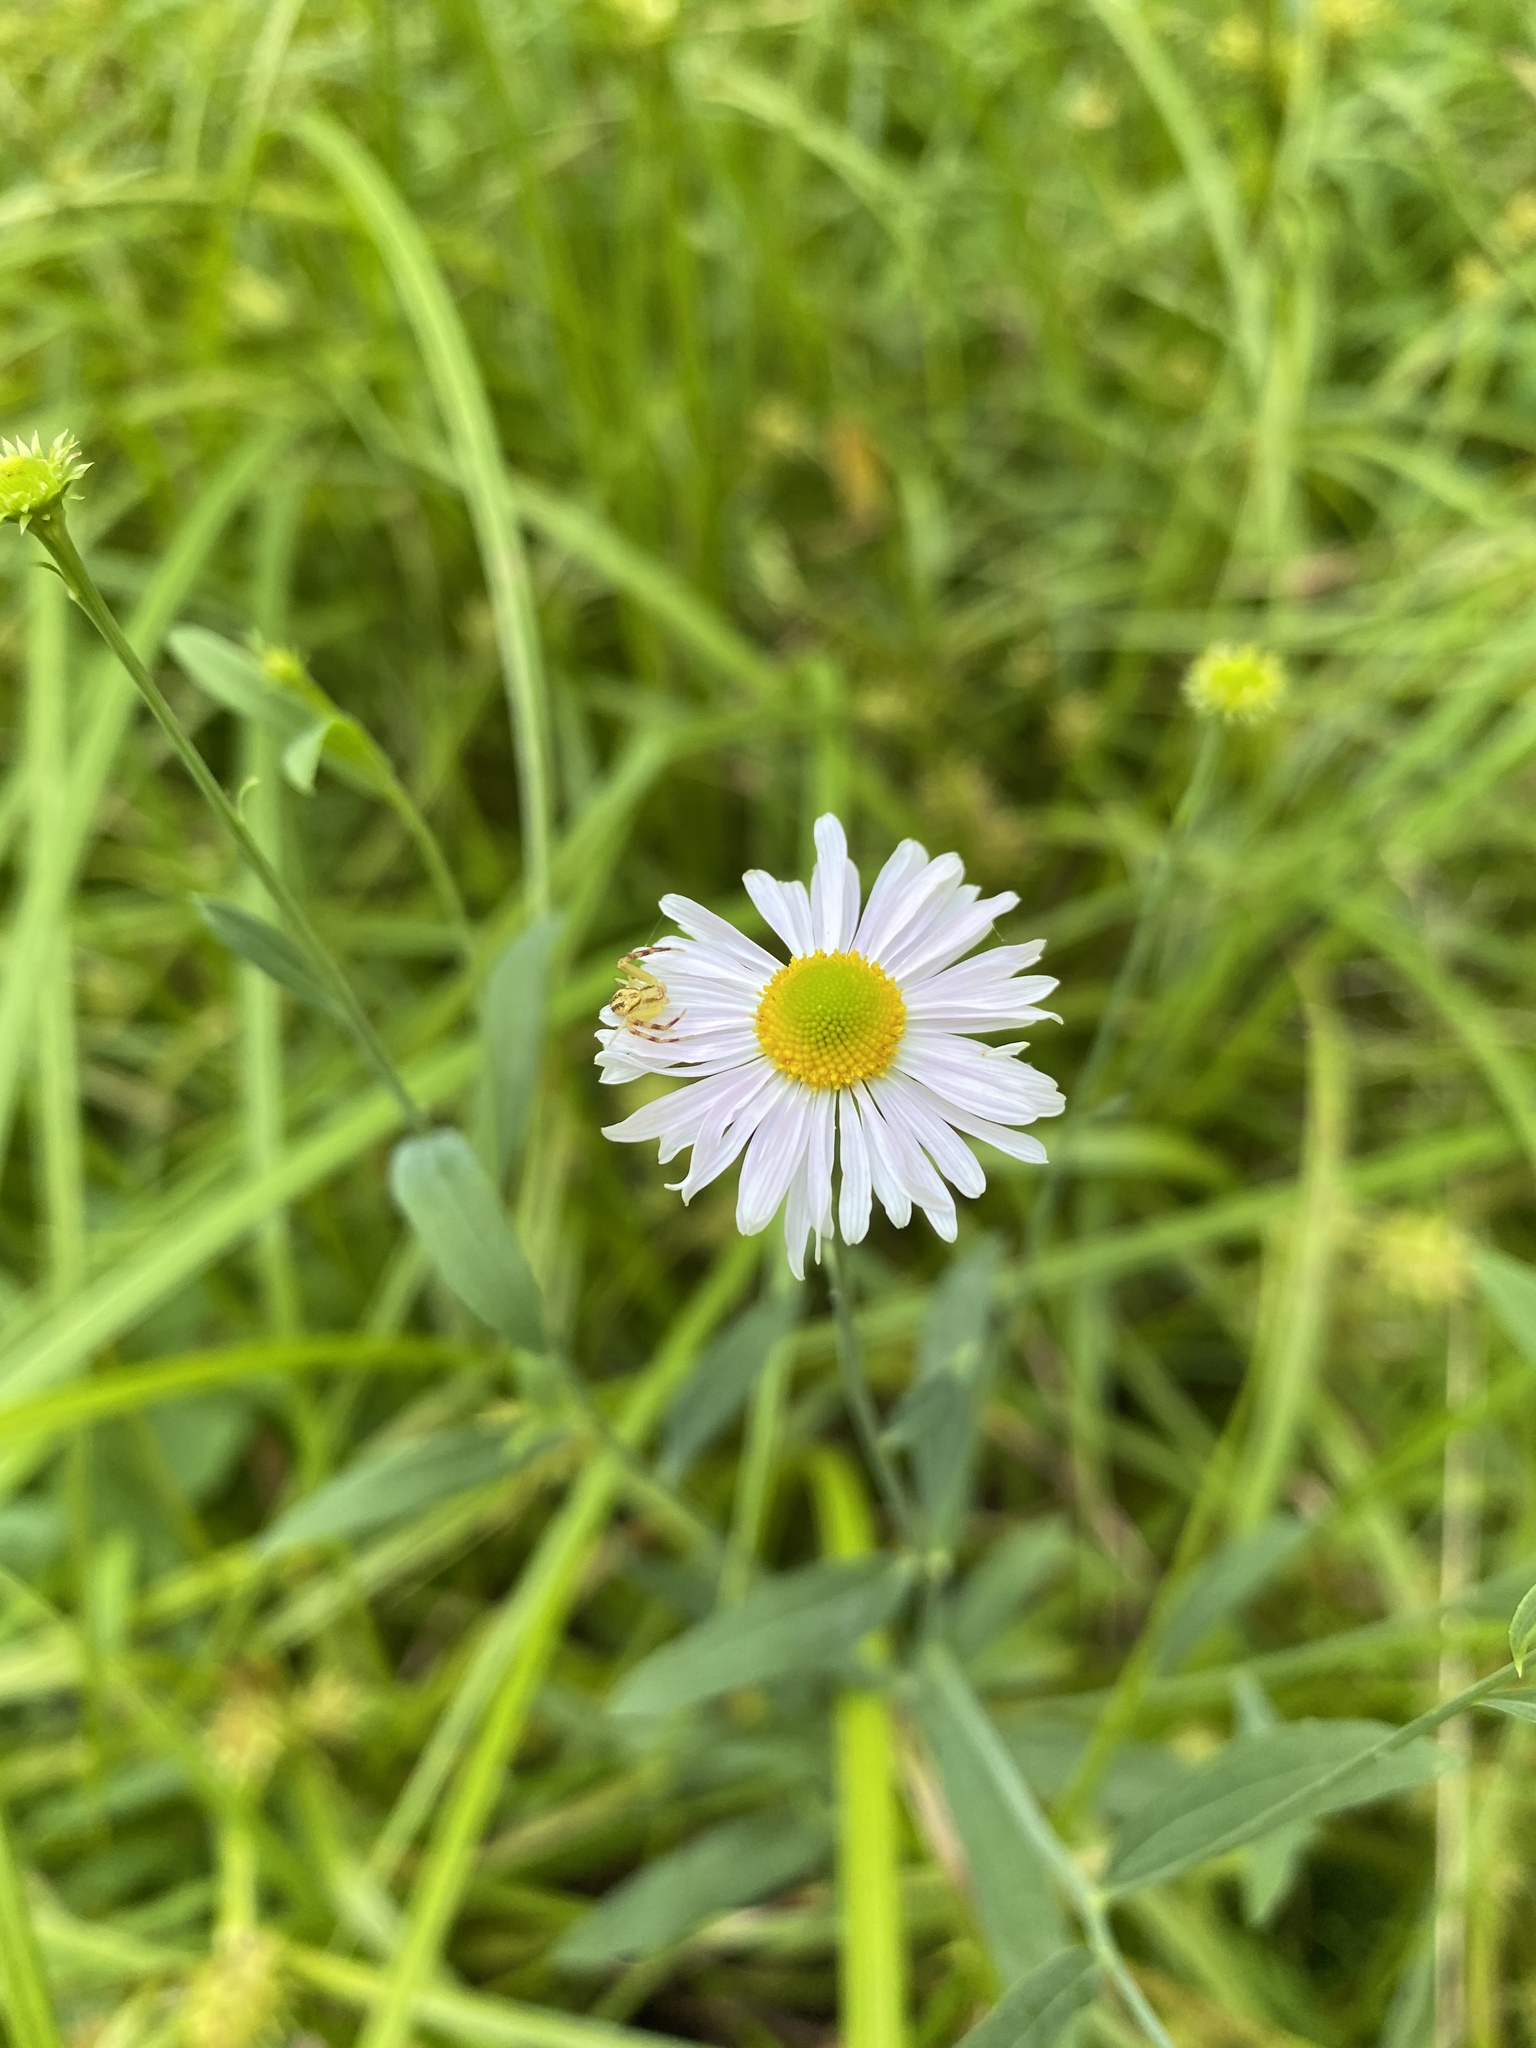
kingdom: Plantae
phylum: Tracheophyta
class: Magnoliopsida
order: Asterales
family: Asteraceae
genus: Boltonia
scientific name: Boltonia montana
